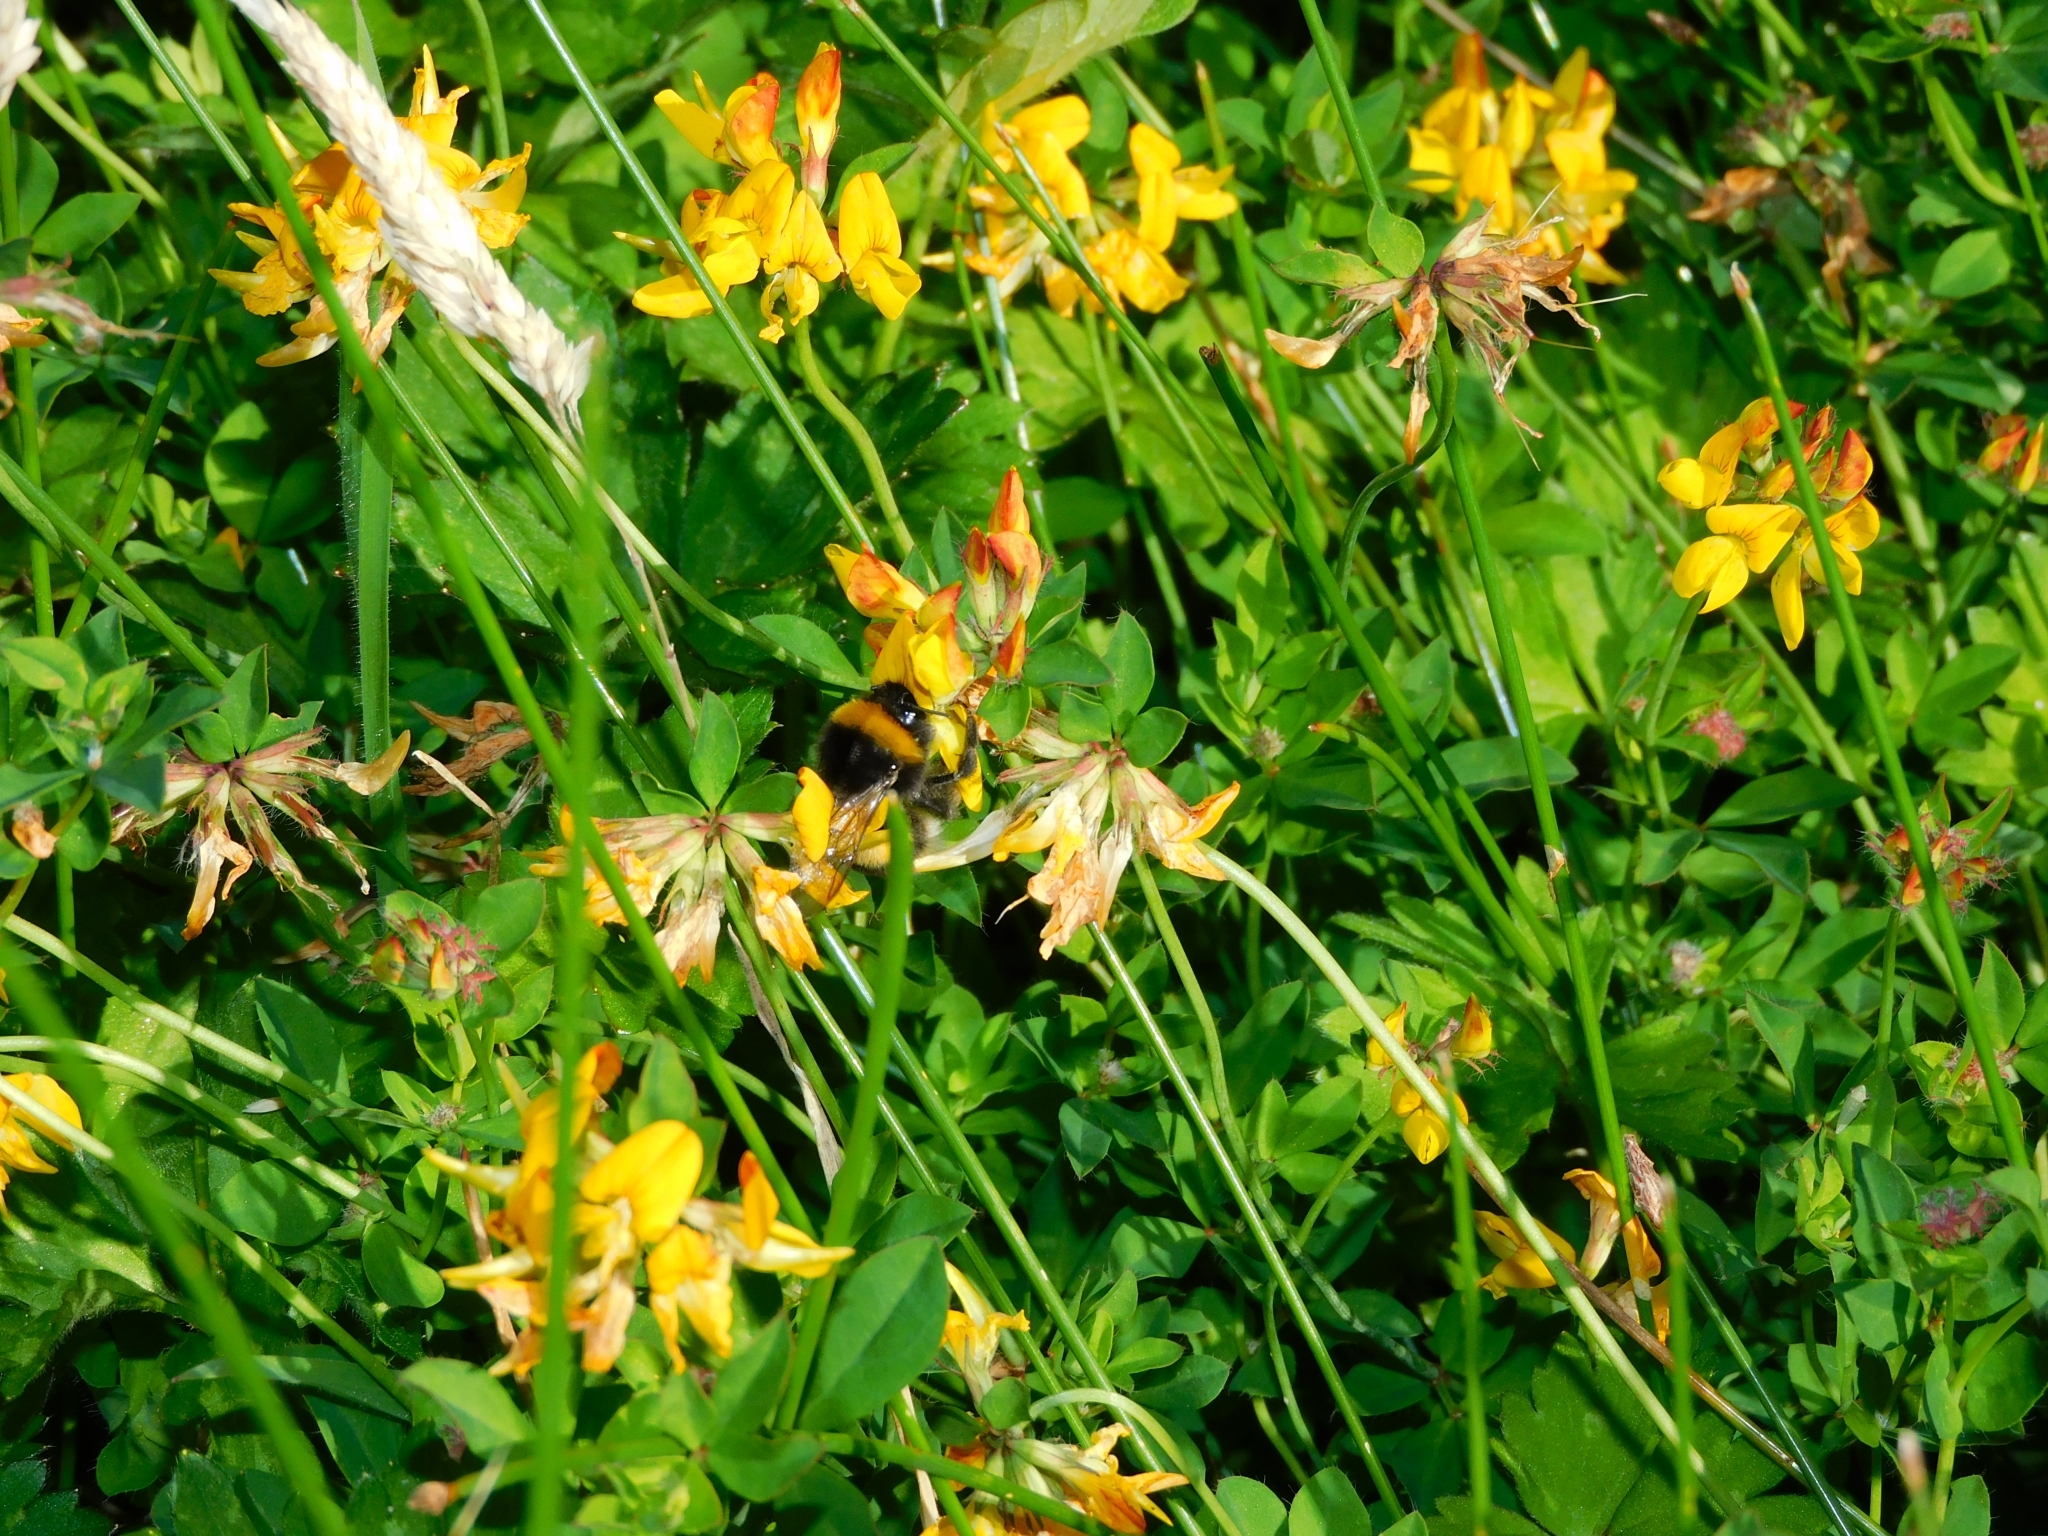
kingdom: Animalia
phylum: Arthropoda
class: Insecta
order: Hymenoptera
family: Apidae
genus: Bombus
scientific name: Bombus terrestris
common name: Buff-tailed bumblebee
